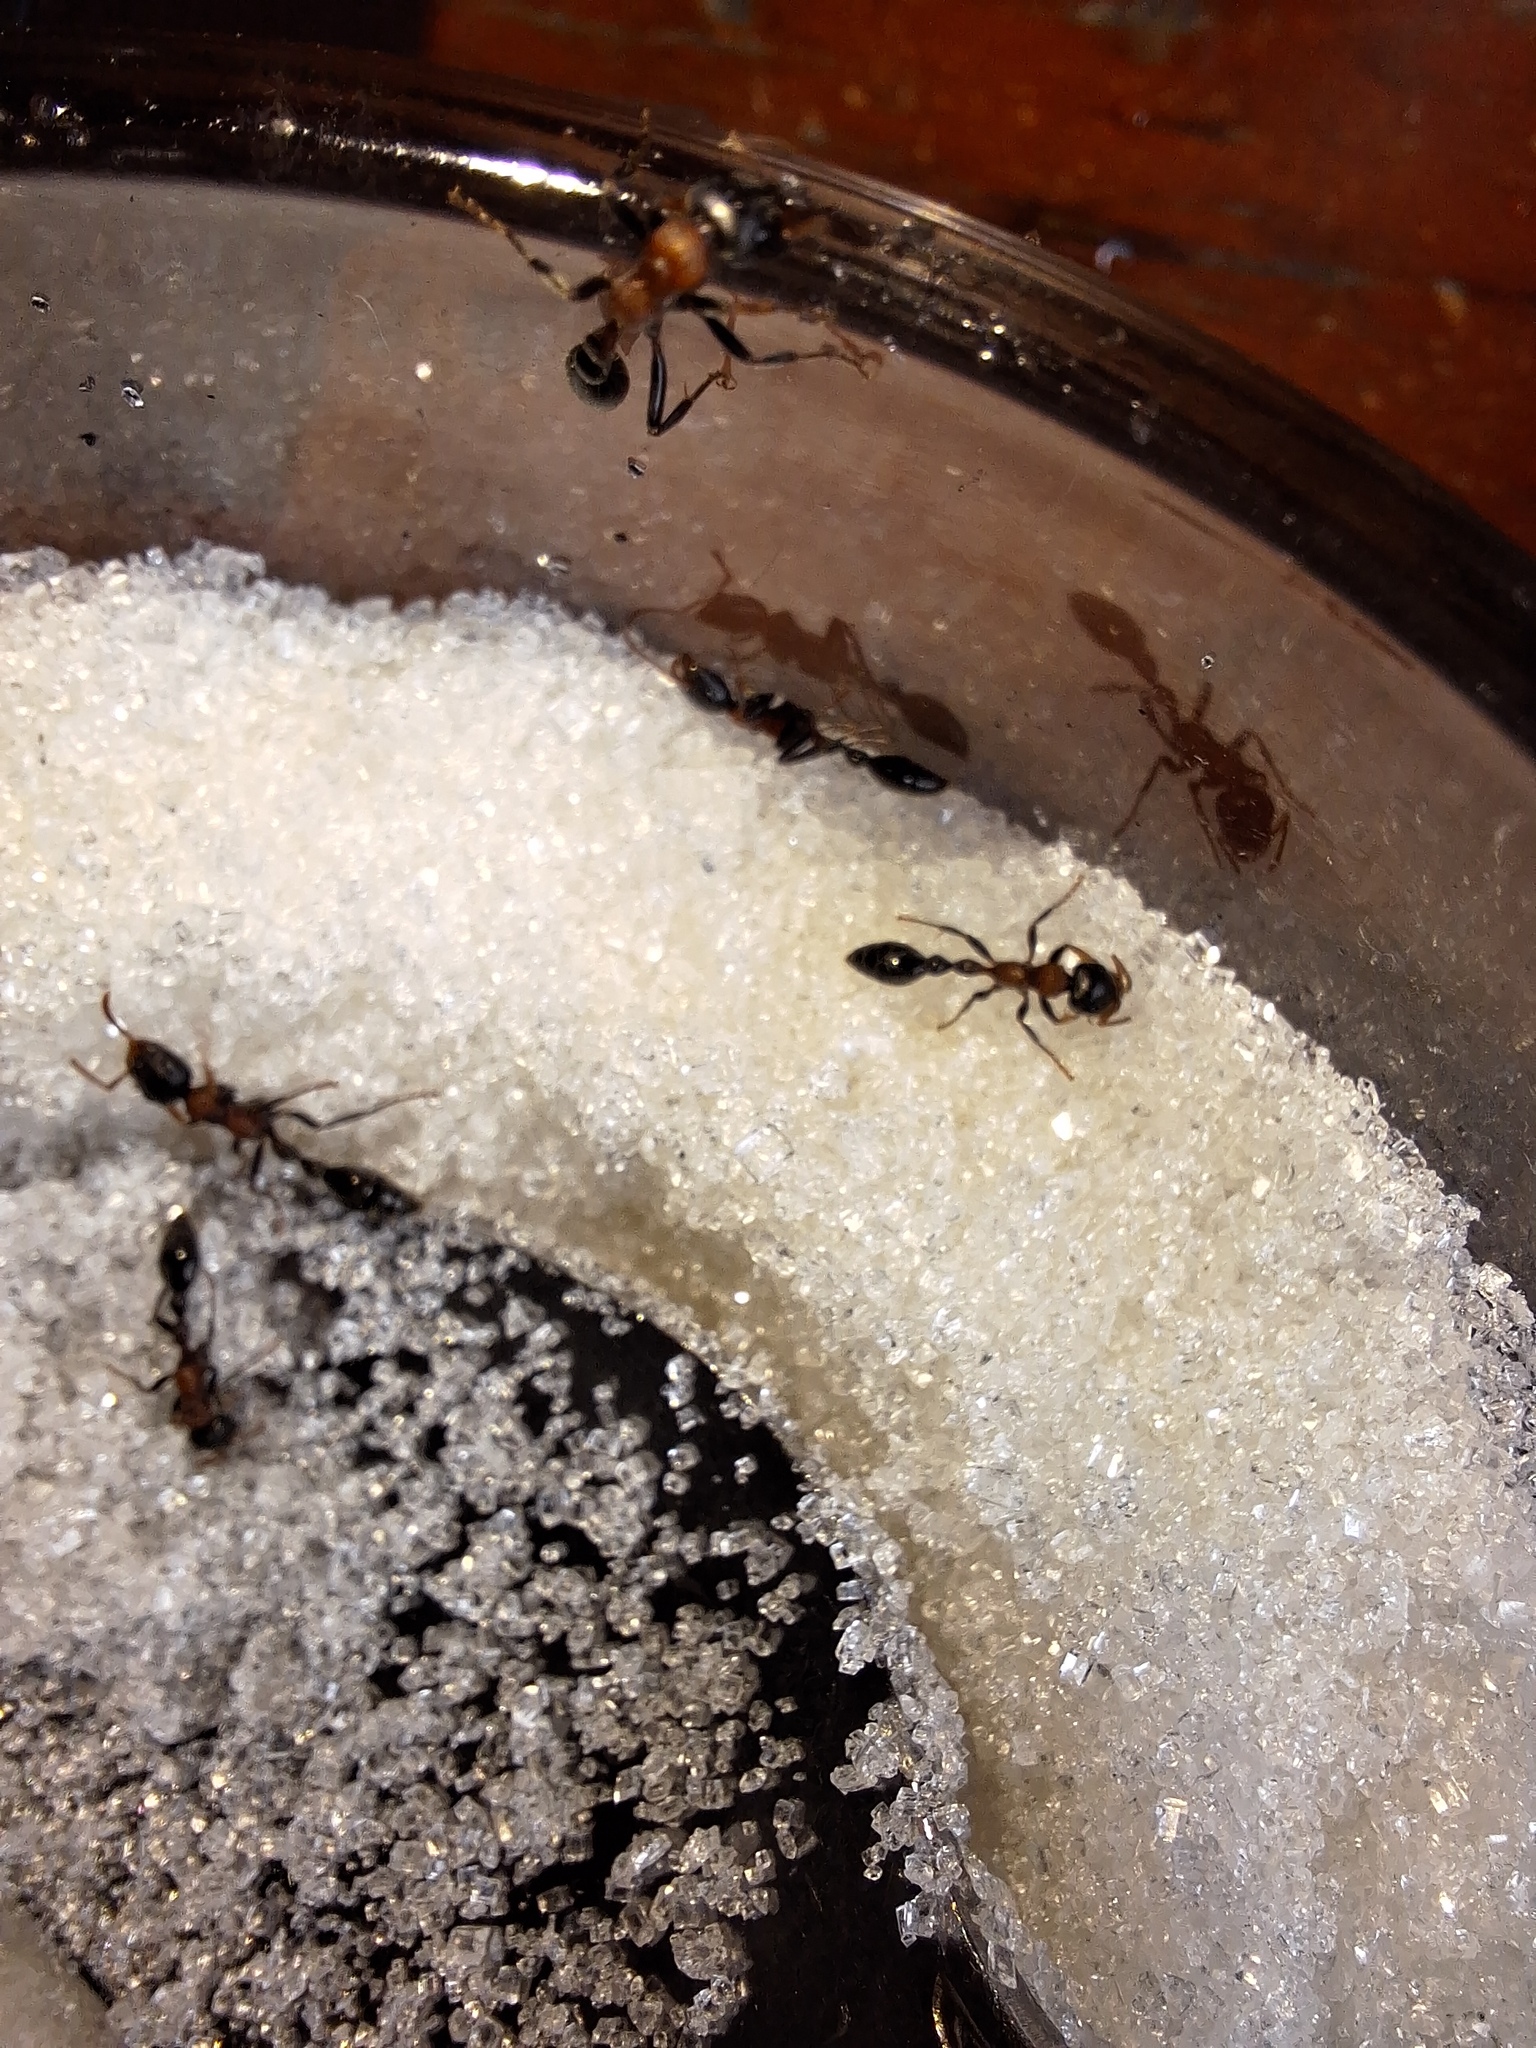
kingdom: Animalia
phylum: Arthropoda
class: Insecta
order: Hymenoptera
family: Formicidae
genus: Tetraponera
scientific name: Tetraponera rufonigra
